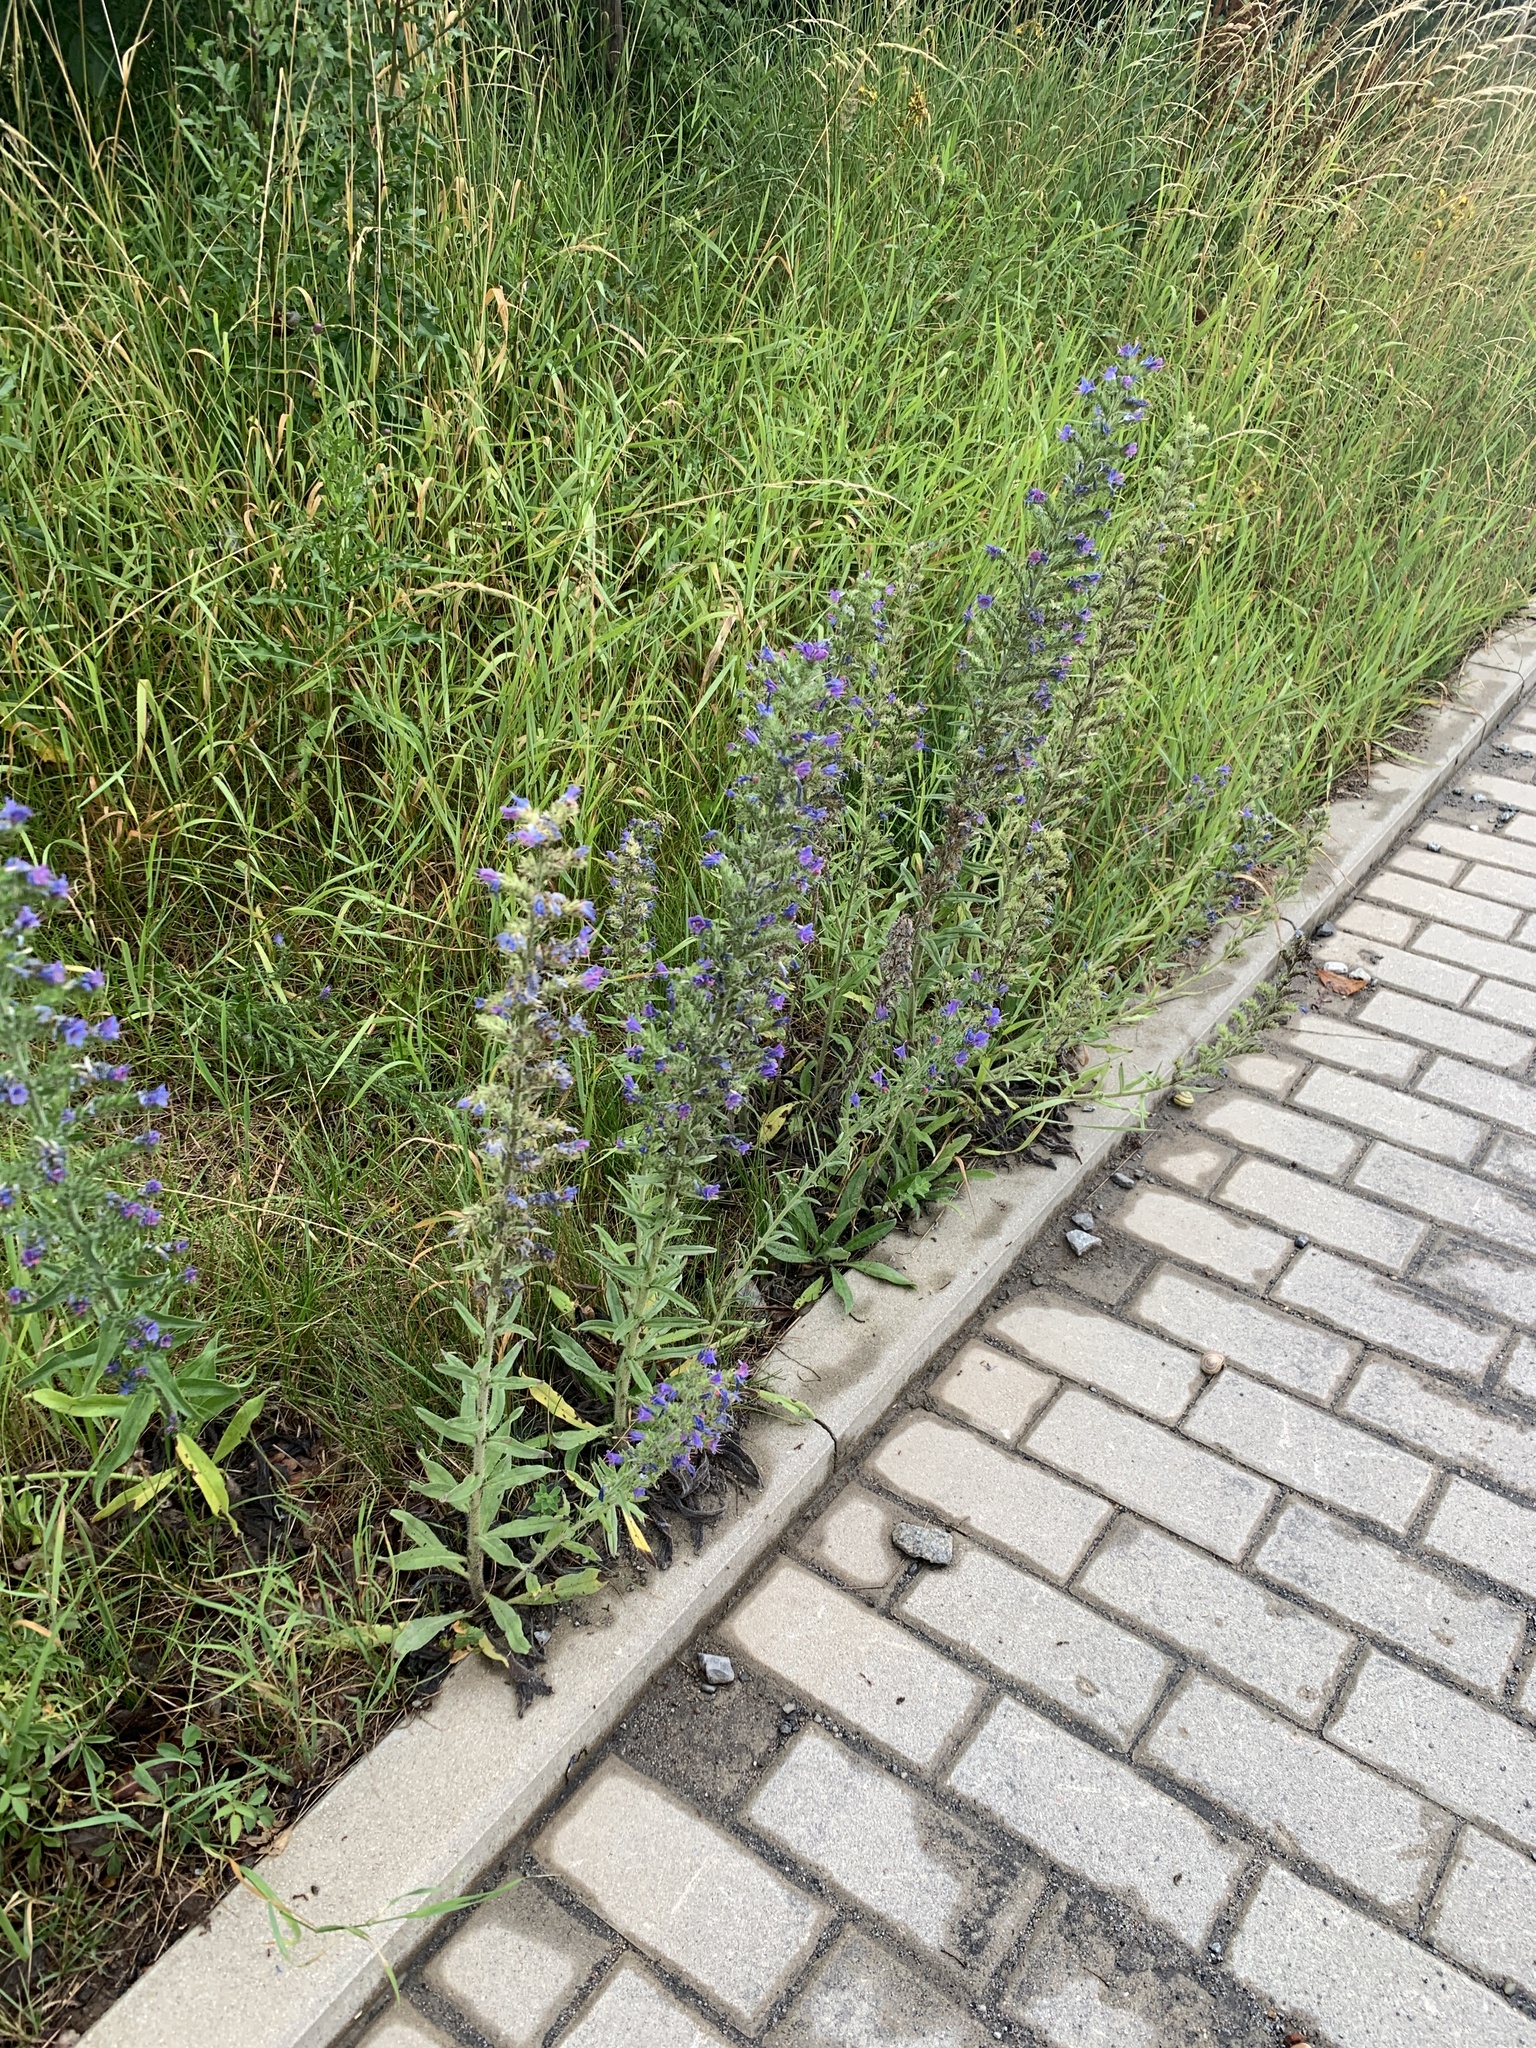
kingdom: Plantae
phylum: Tracheophyta
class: Magnoliopsida
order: Boraginales
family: Boraginaceae
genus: Echium
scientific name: Echium vulgare
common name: Common viper's bugloss
